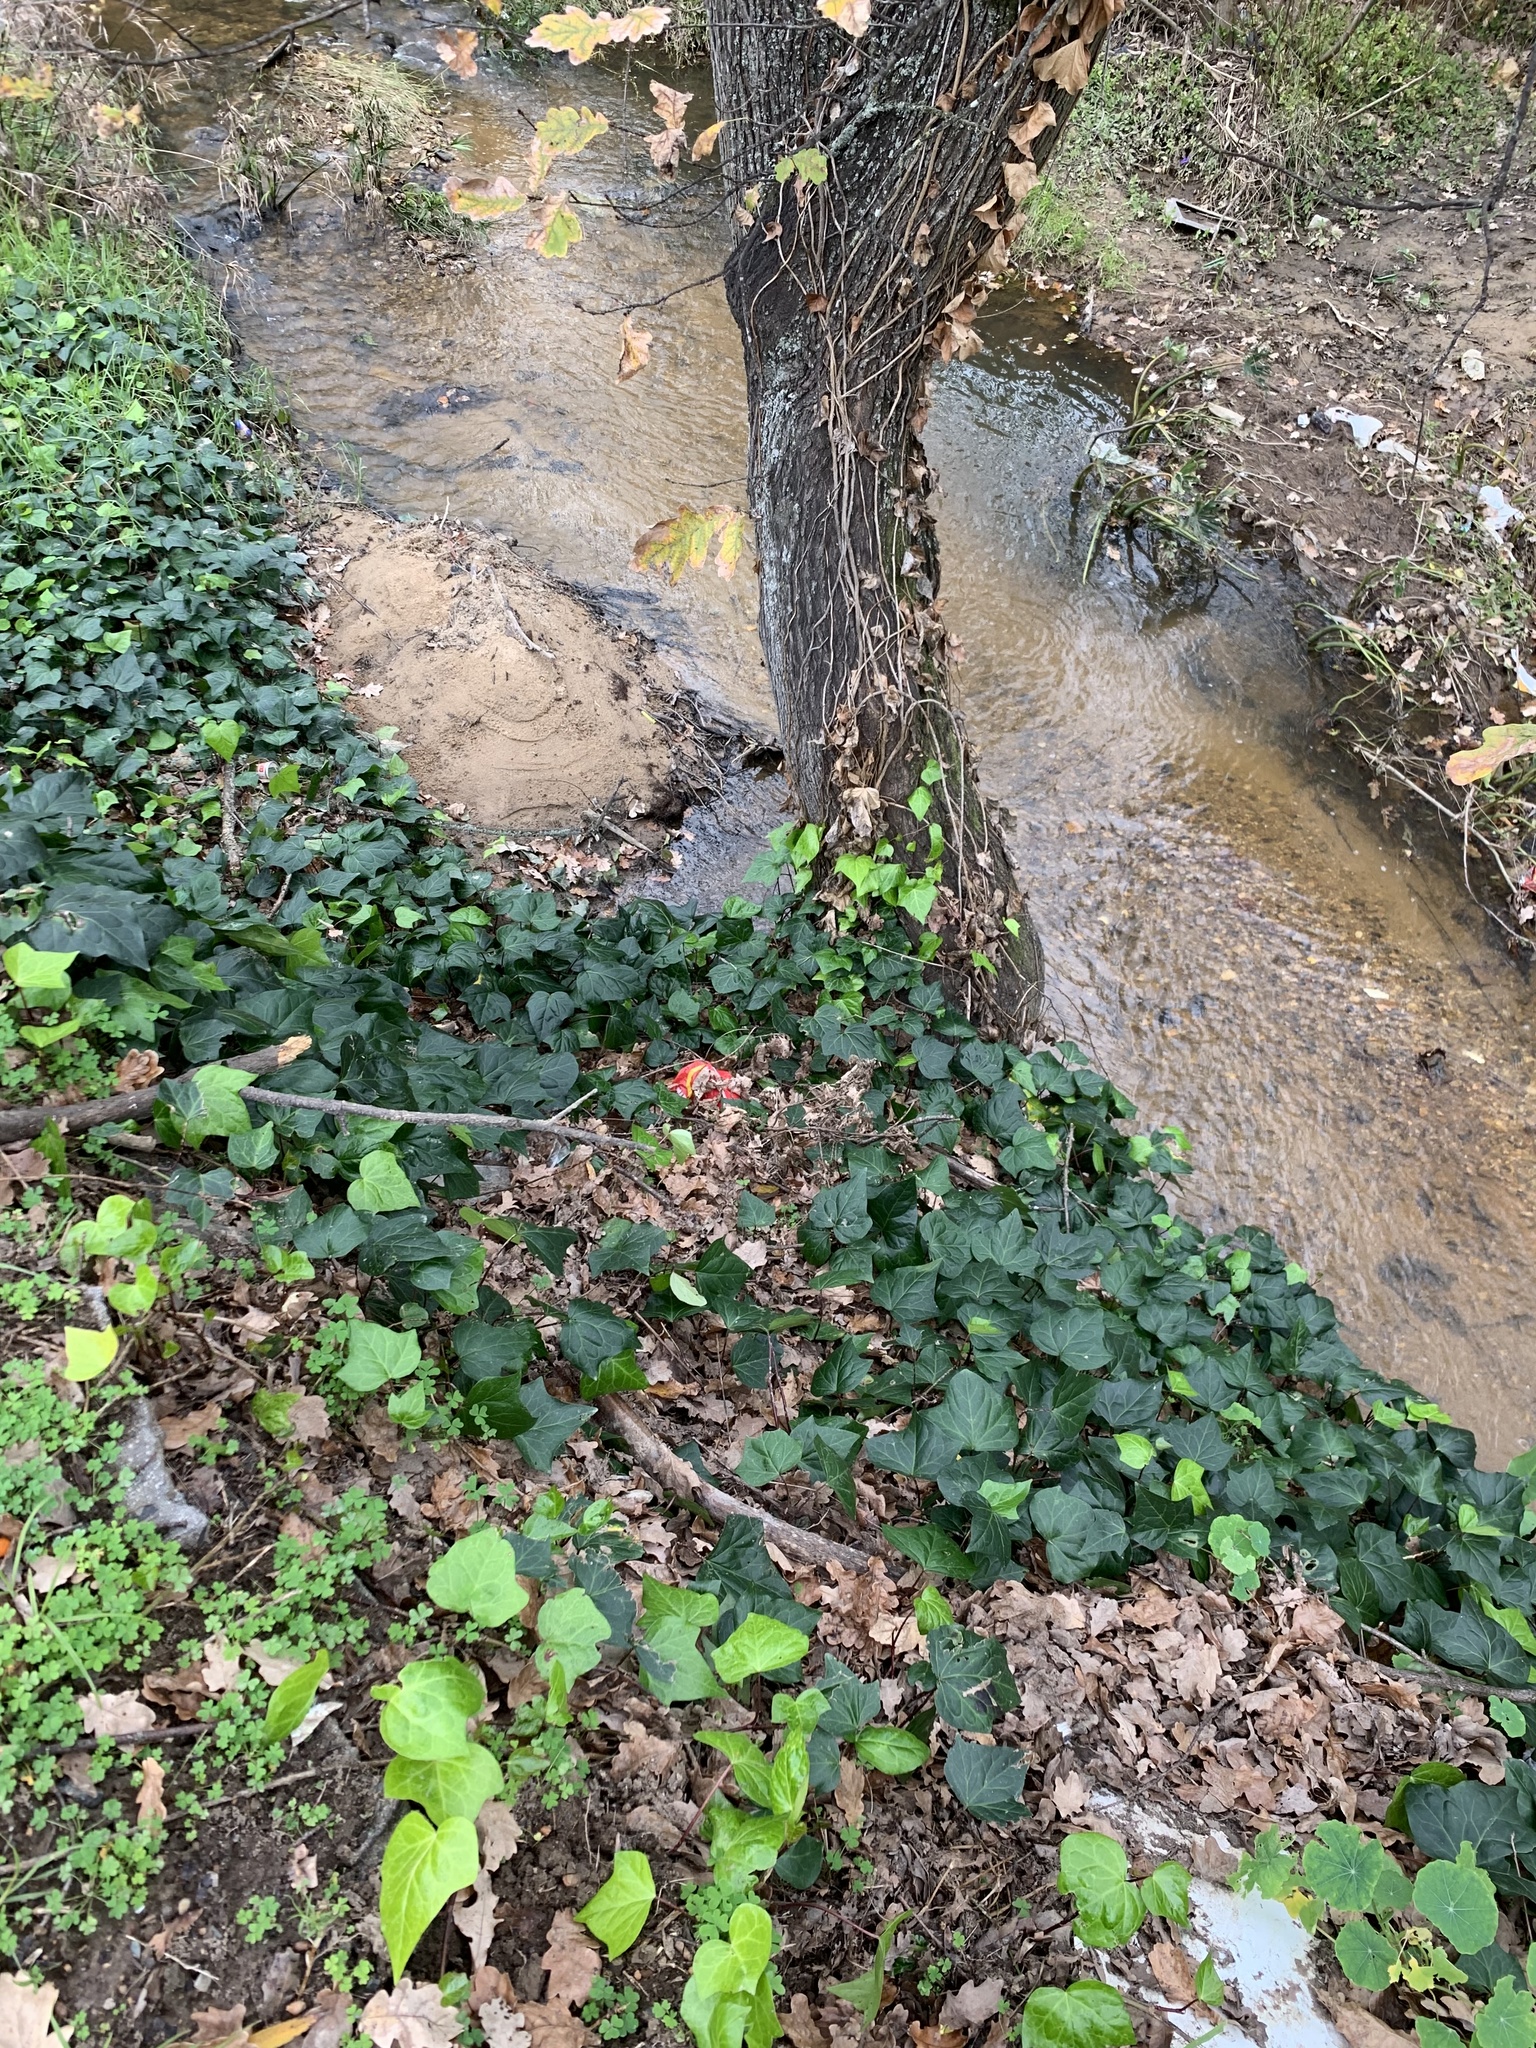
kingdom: Plantae
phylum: Tracheophyta
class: Magnoliopsida
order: Apiales
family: Araliaceae
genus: Hedera
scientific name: Hedera canariensis
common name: Madeira ivy
